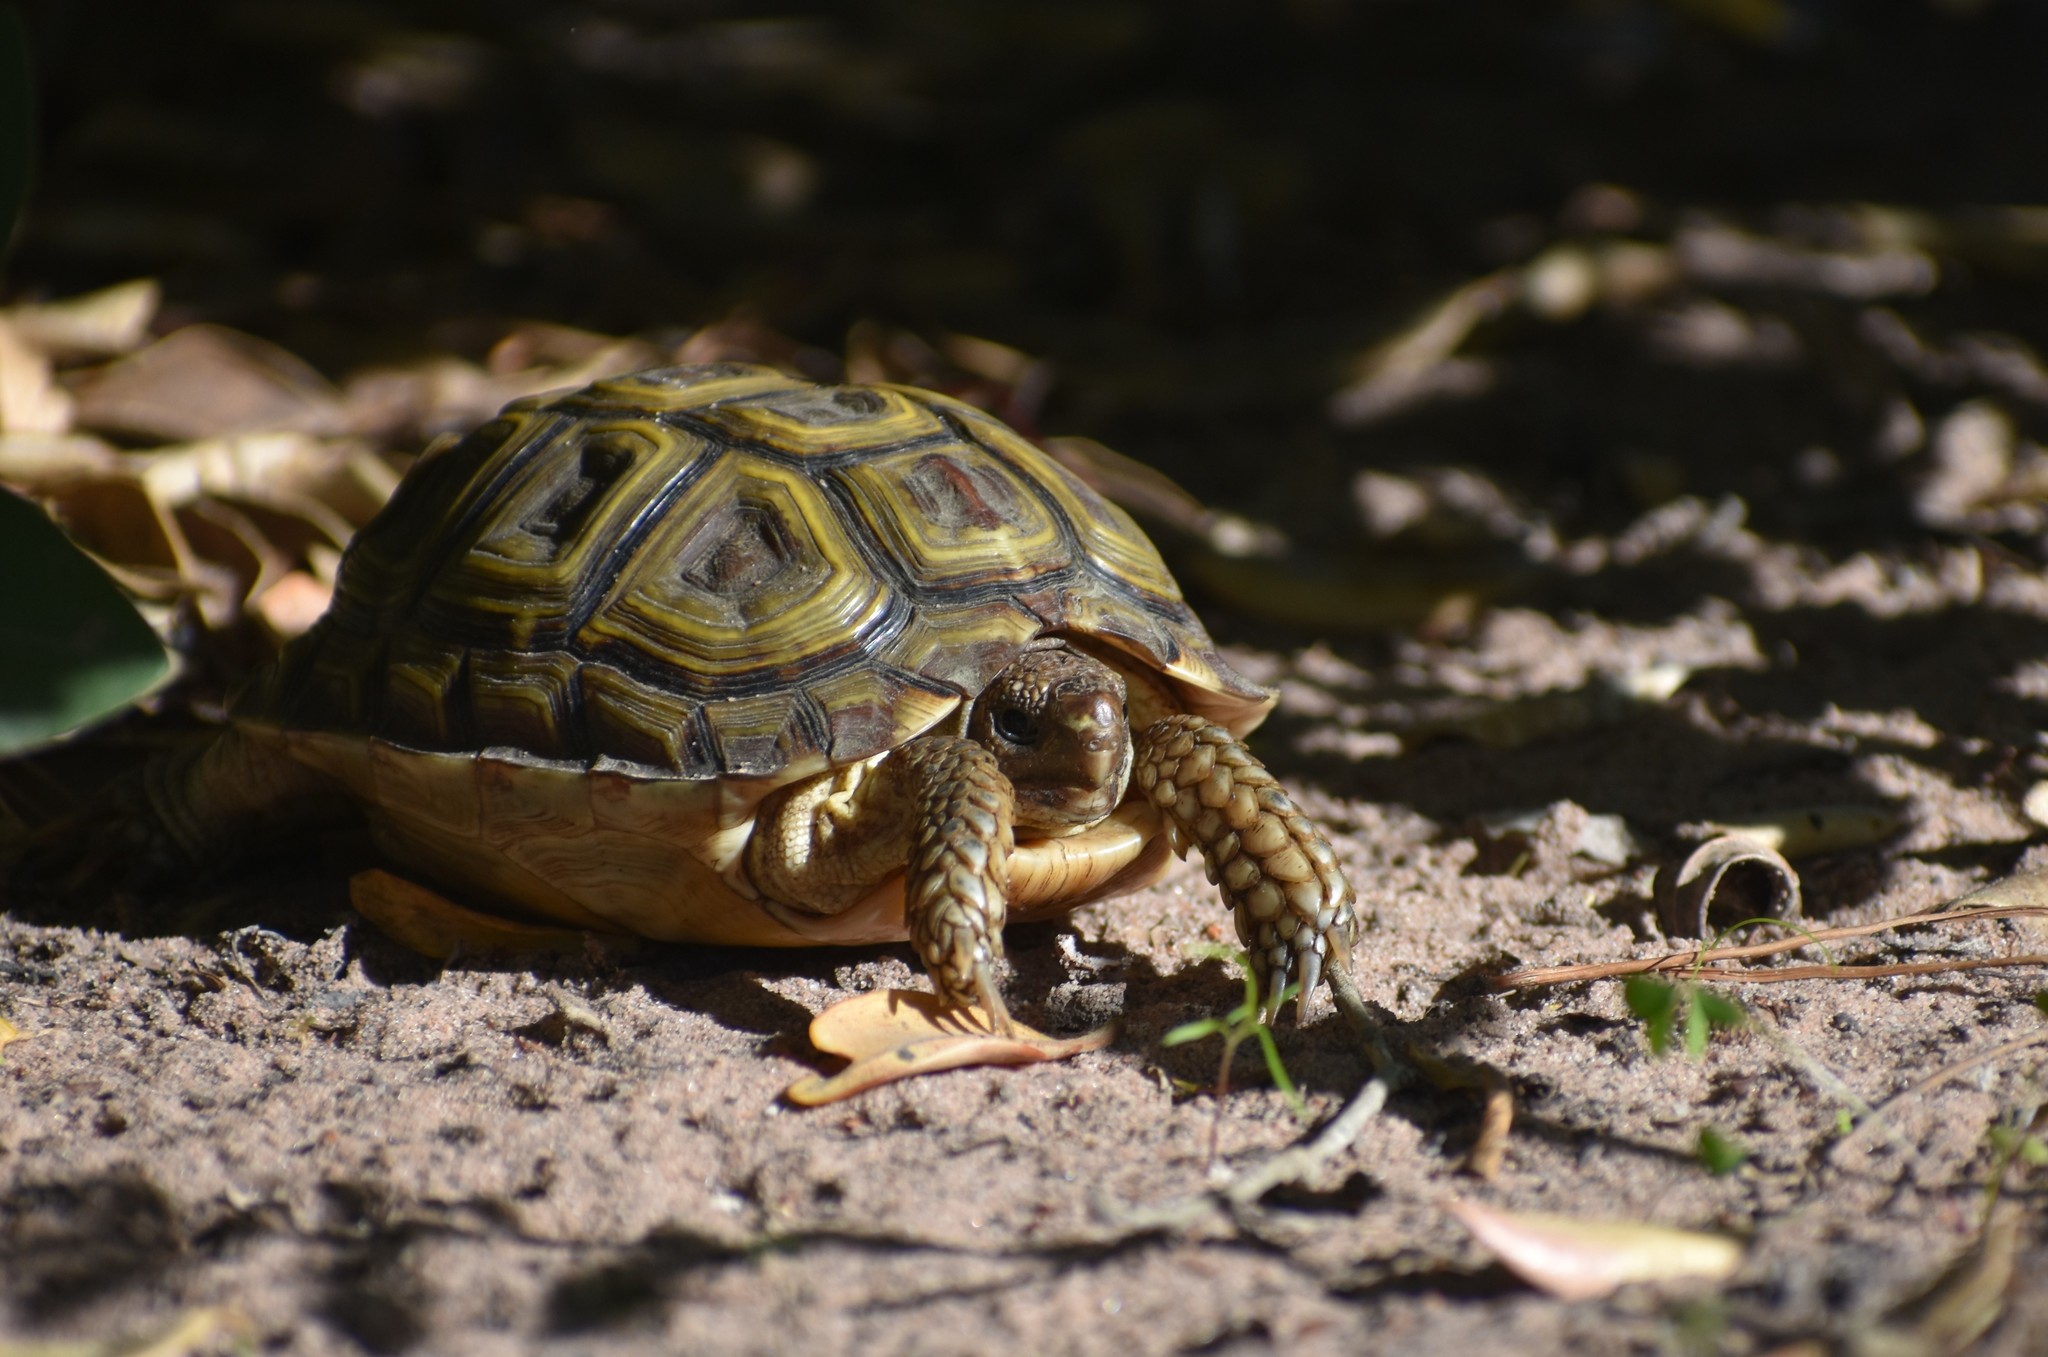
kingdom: Animalia
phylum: Chordata
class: Testudines
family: Testudinidae
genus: Homopus
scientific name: Homopus areolatus
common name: Parrot-beaked tortoise
